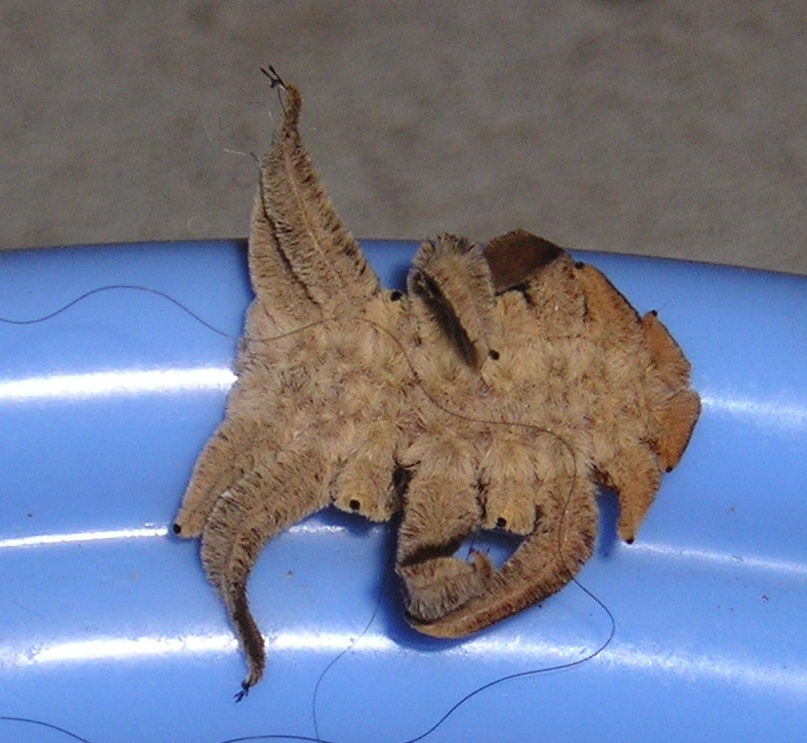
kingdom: Animalia
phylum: Arthropoda
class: Insecta
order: Lepidoptera
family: Limacodidae
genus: Phobetron
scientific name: Phobetron pithecium
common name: Hag moth
